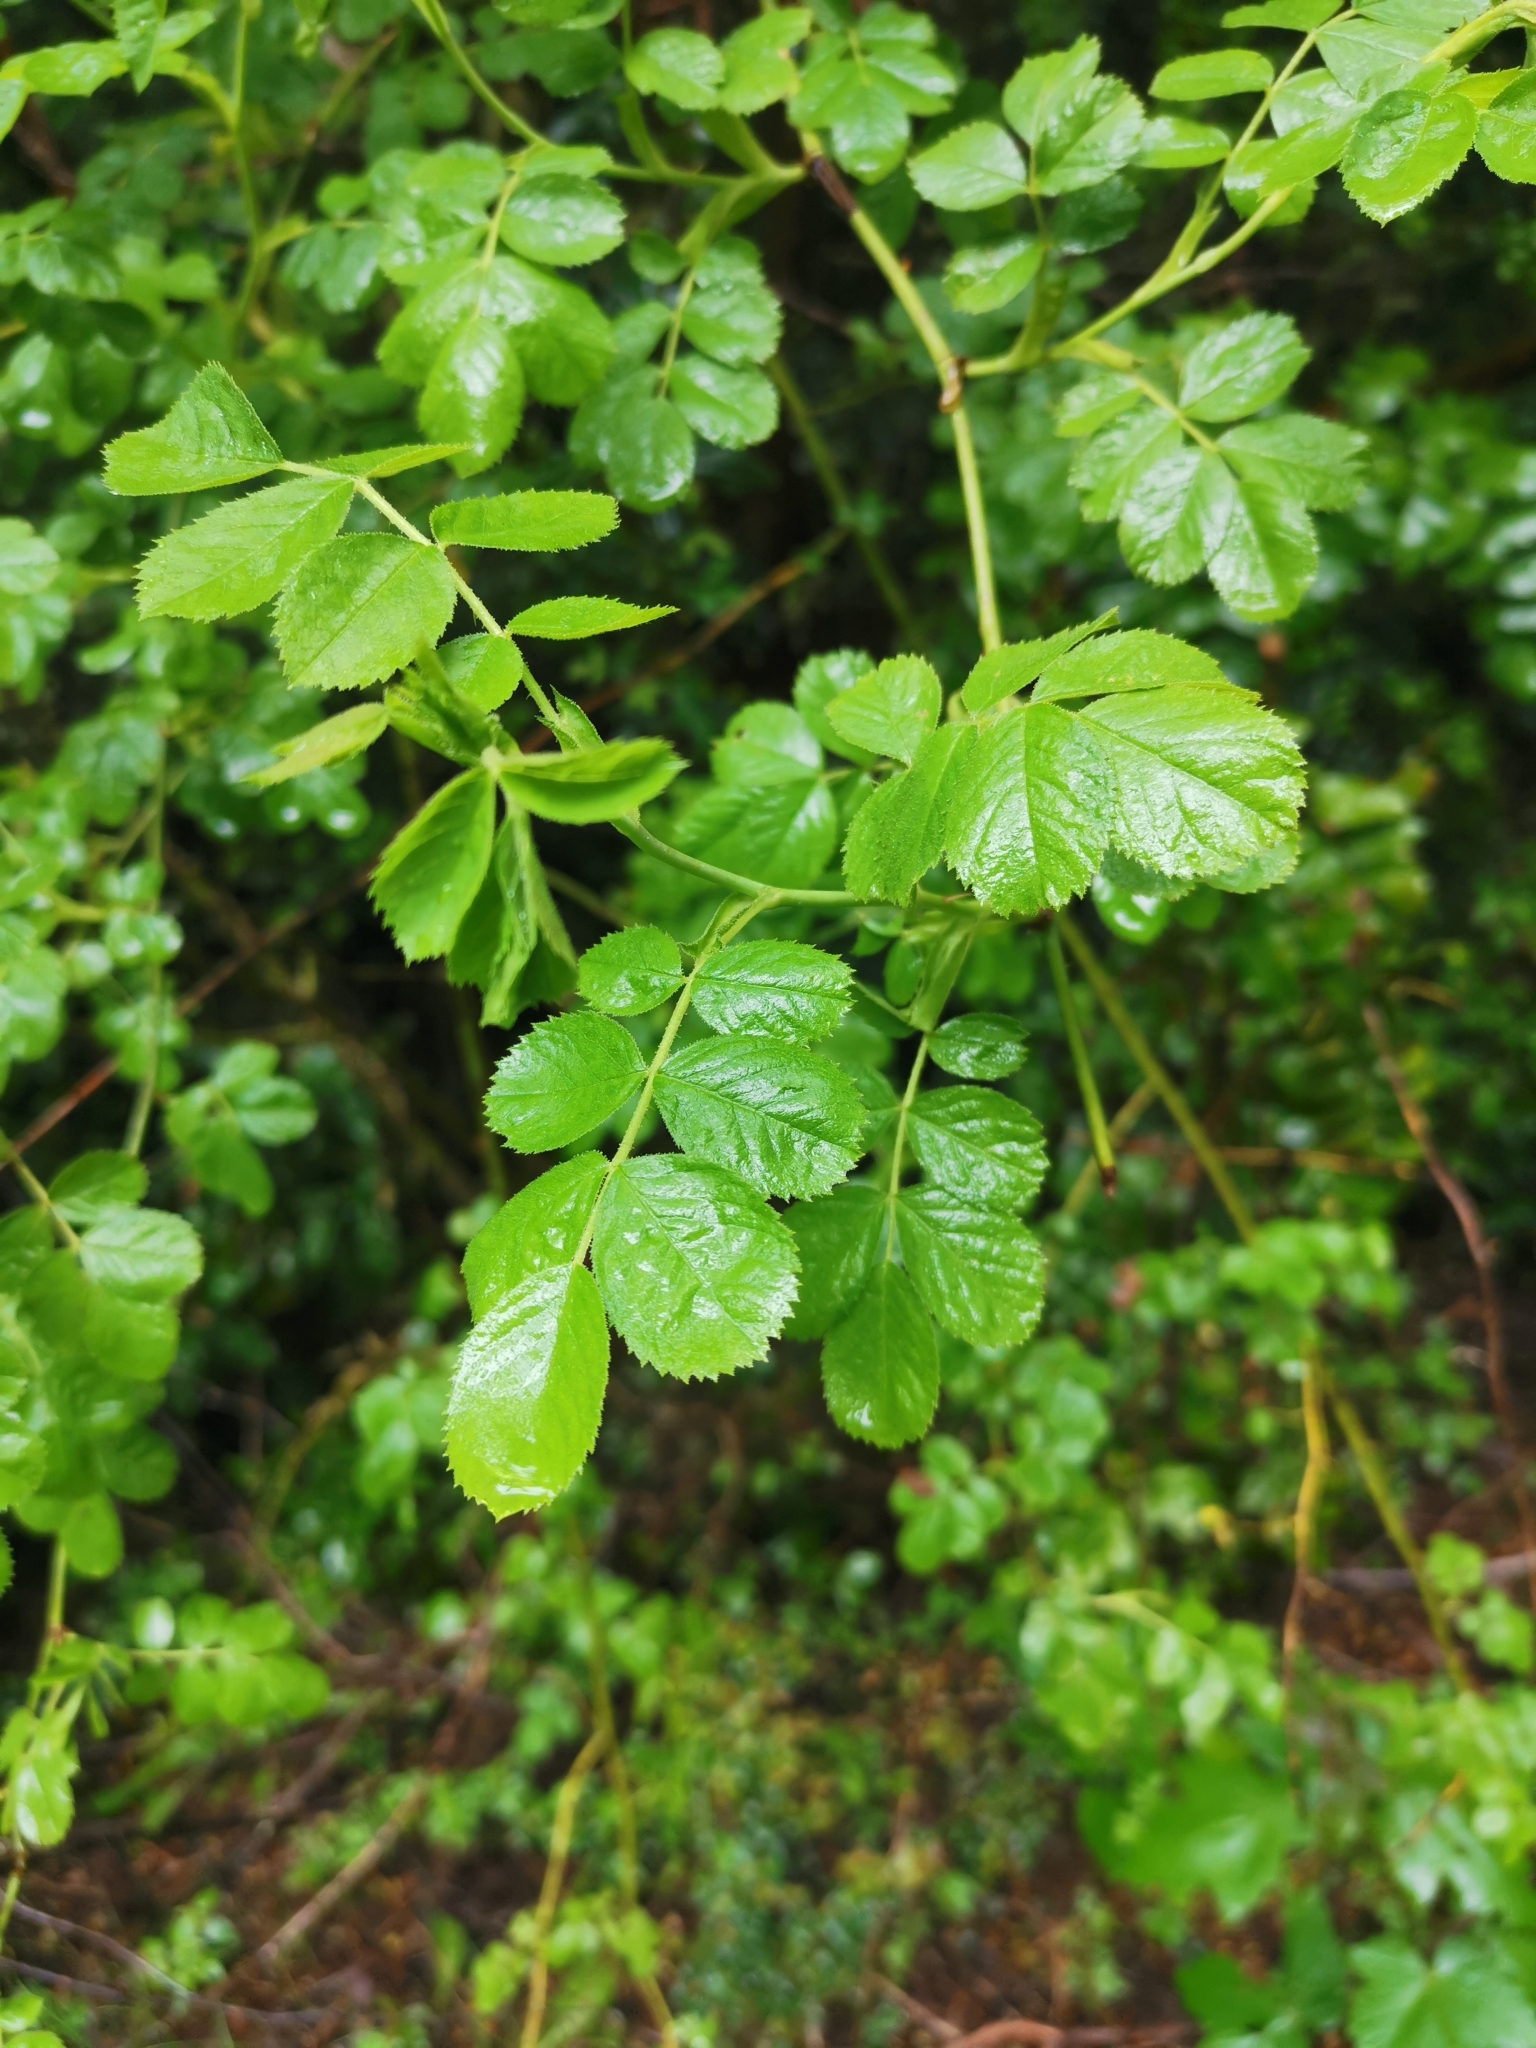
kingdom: Plantae
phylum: Tracheophyta
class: Magnoliopsida
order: Rosales
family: Rosaceae
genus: Rosa
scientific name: Rosa rubiginosa
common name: Sweet-briar
